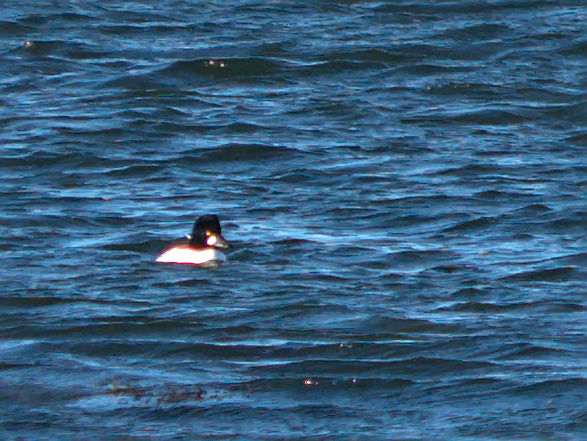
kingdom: Animalia
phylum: Chordata
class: Aves
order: Anseriformes
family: Anatidae
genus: Bucephala
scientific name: Bucephala clangula
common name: Common goldeneye
